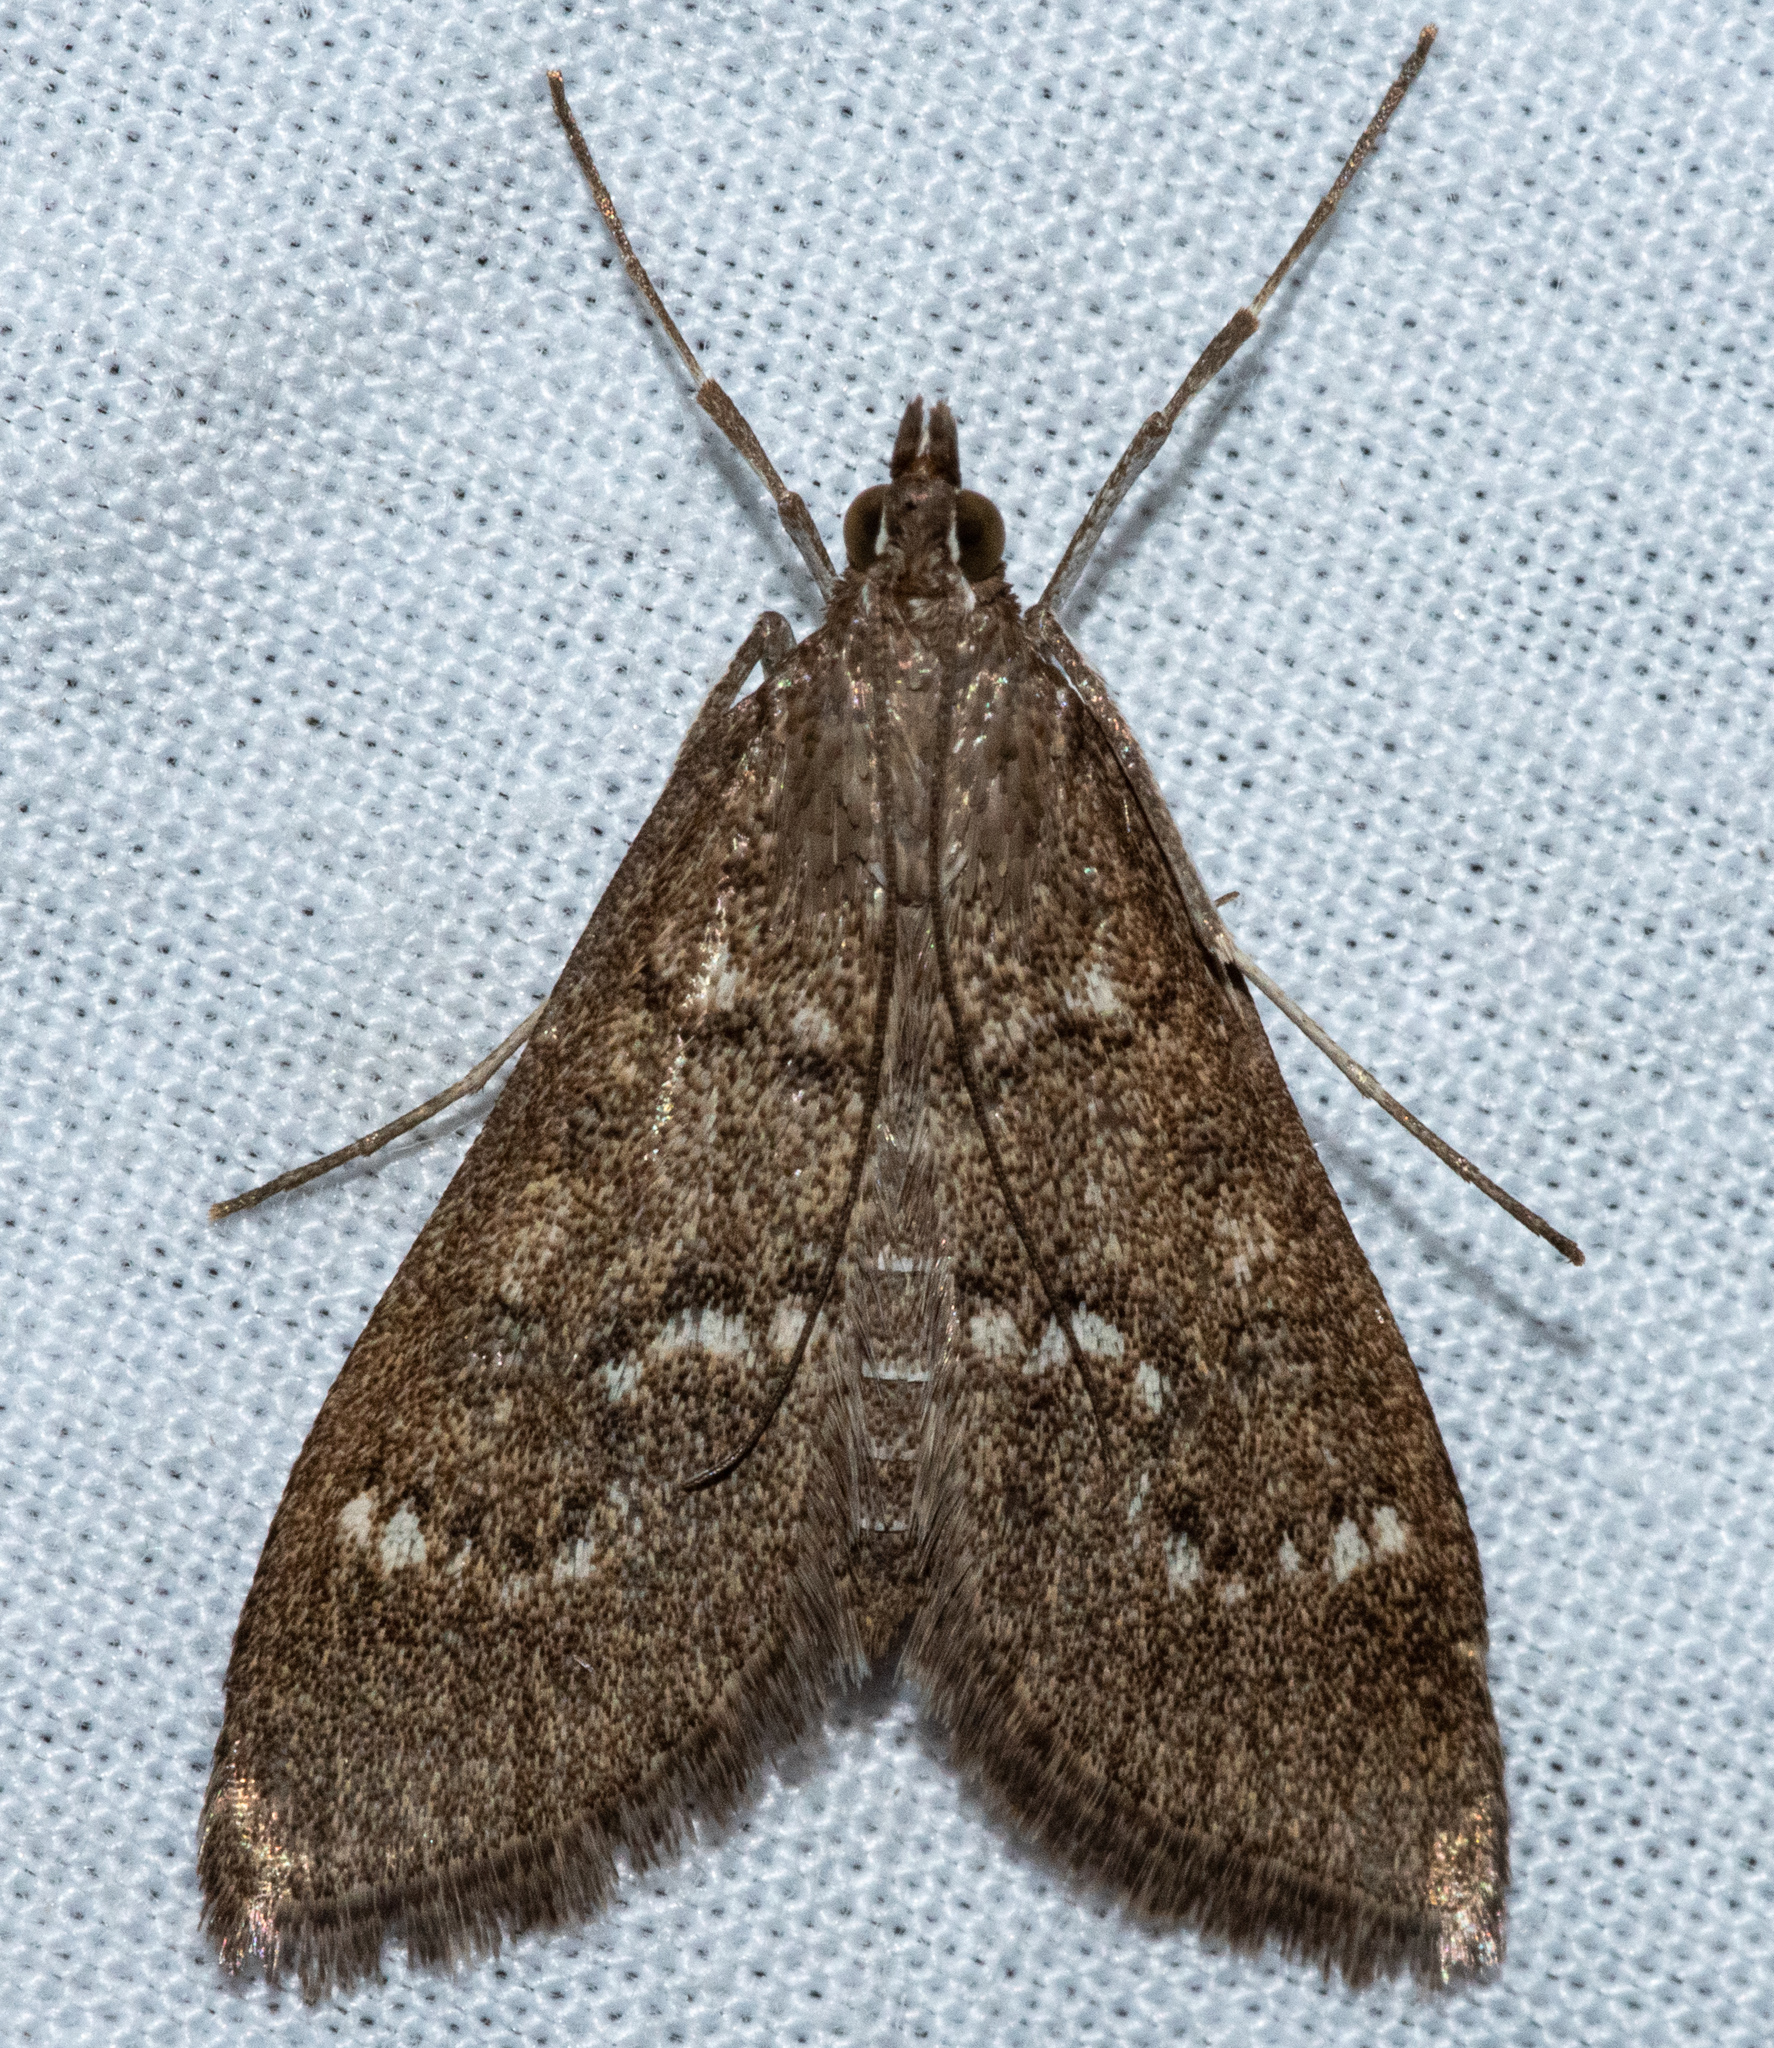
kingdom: Animalia
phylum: Arthropoda
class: Insecta
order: Lepidoptera
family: Crambidae
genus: Mecyna
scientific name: Mecyna mustelinalis
